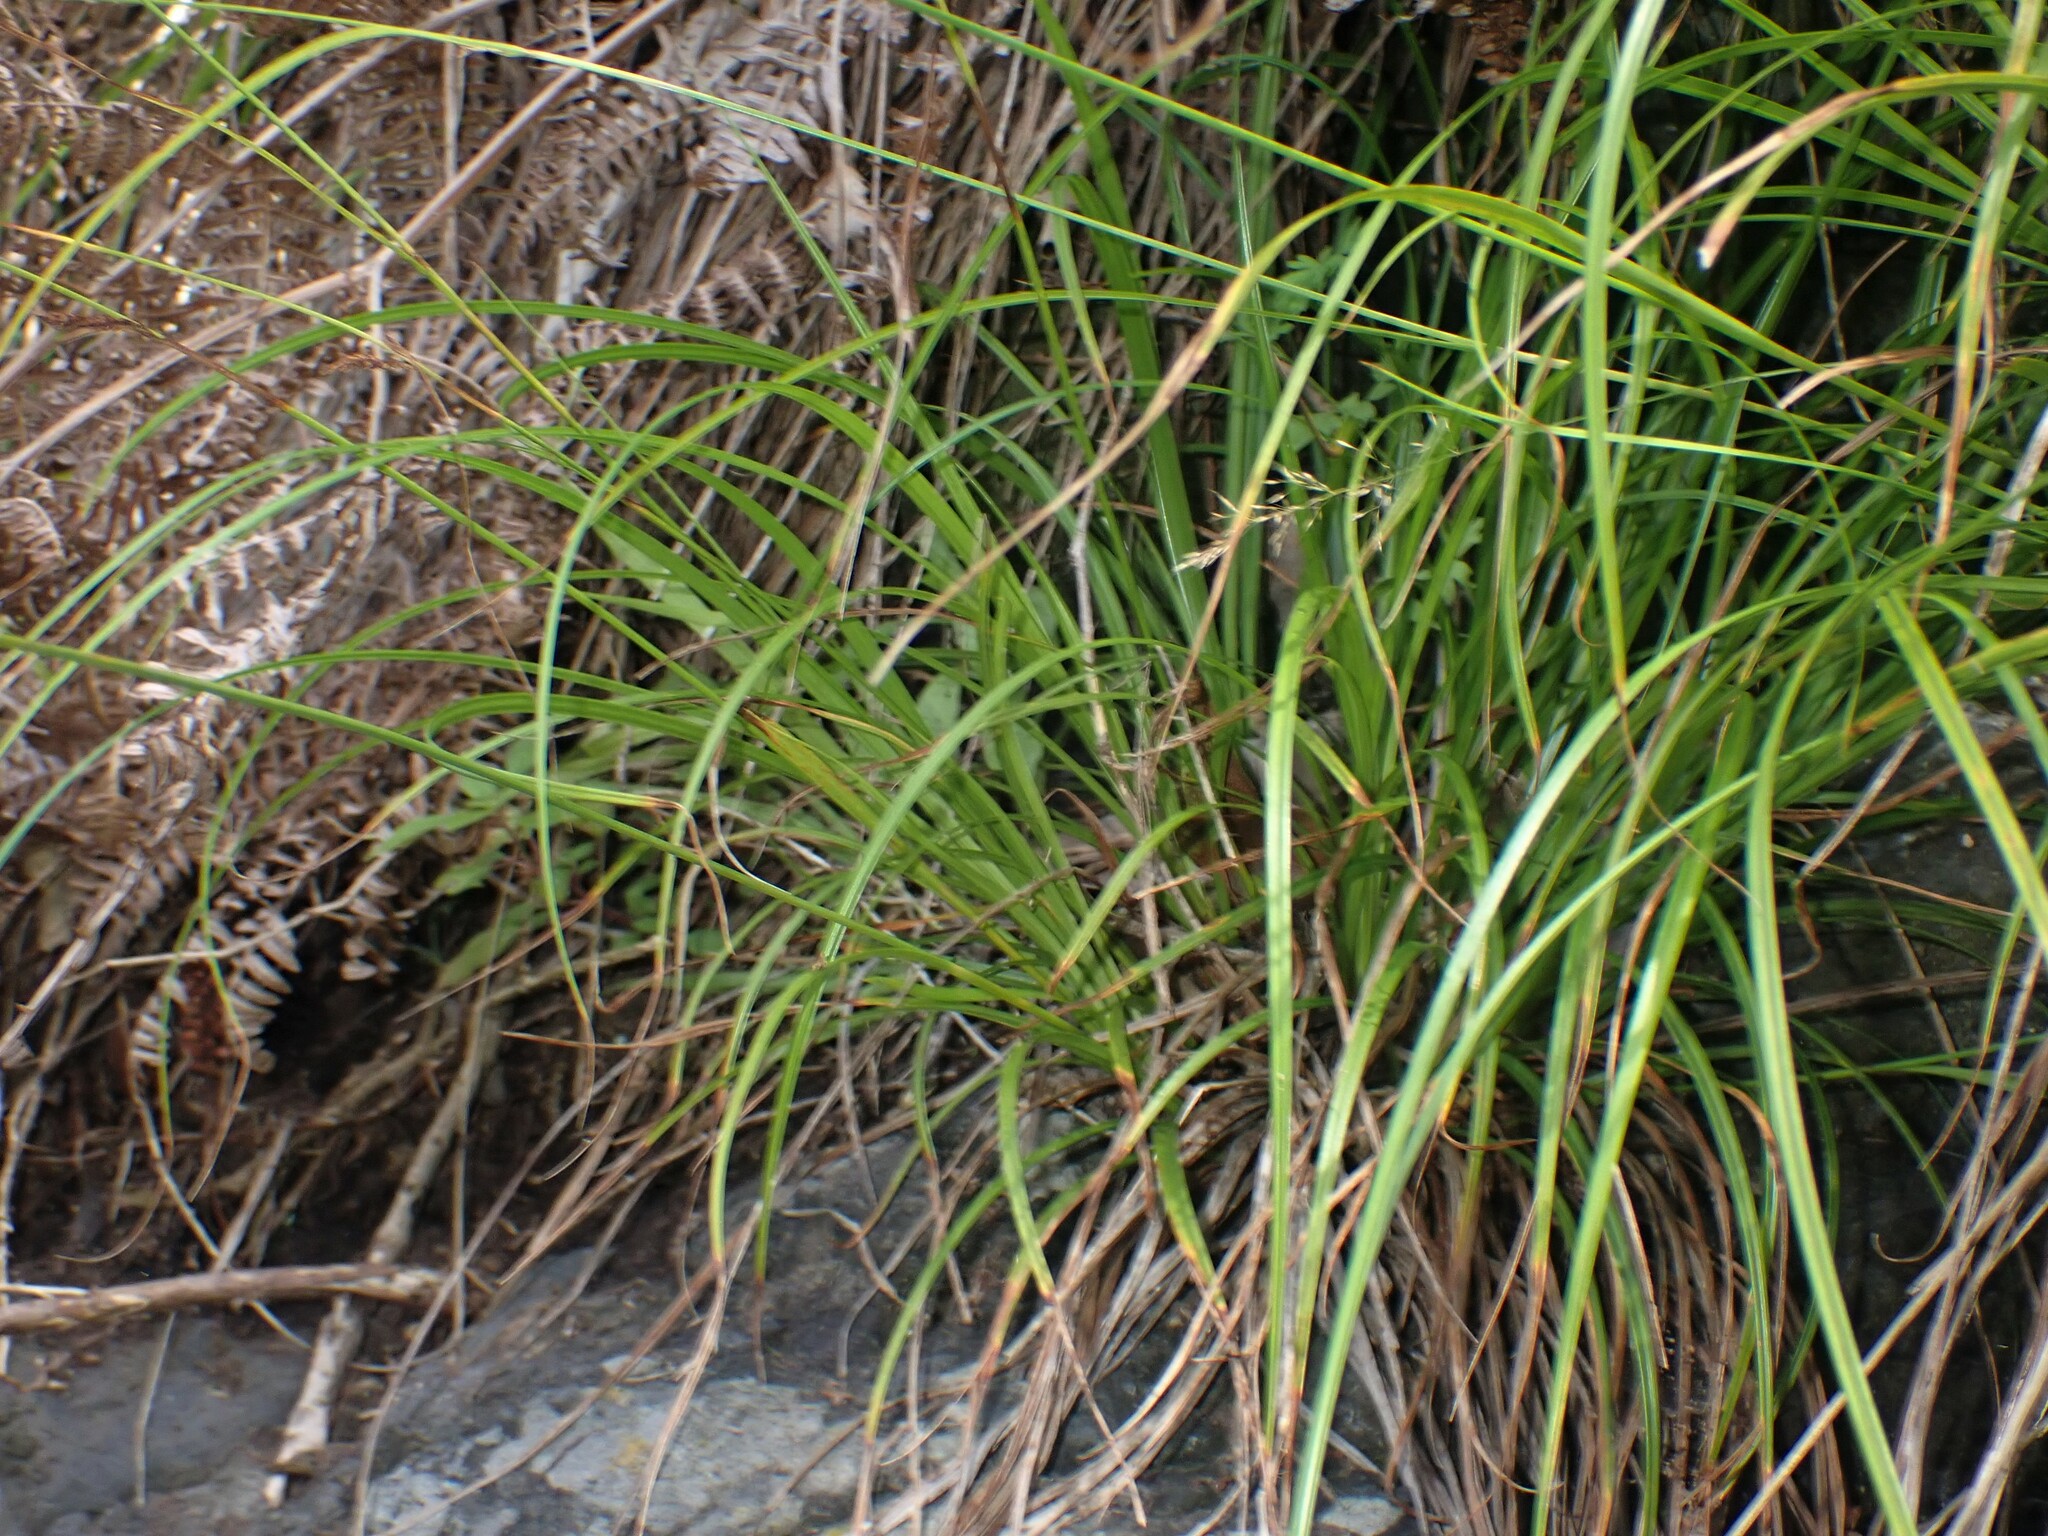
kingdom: Plantae
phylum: Tracheophyta
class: Liliopsida
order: Poales
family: Cyperaceae
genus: Carex
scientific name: Carex hochstetteriana
